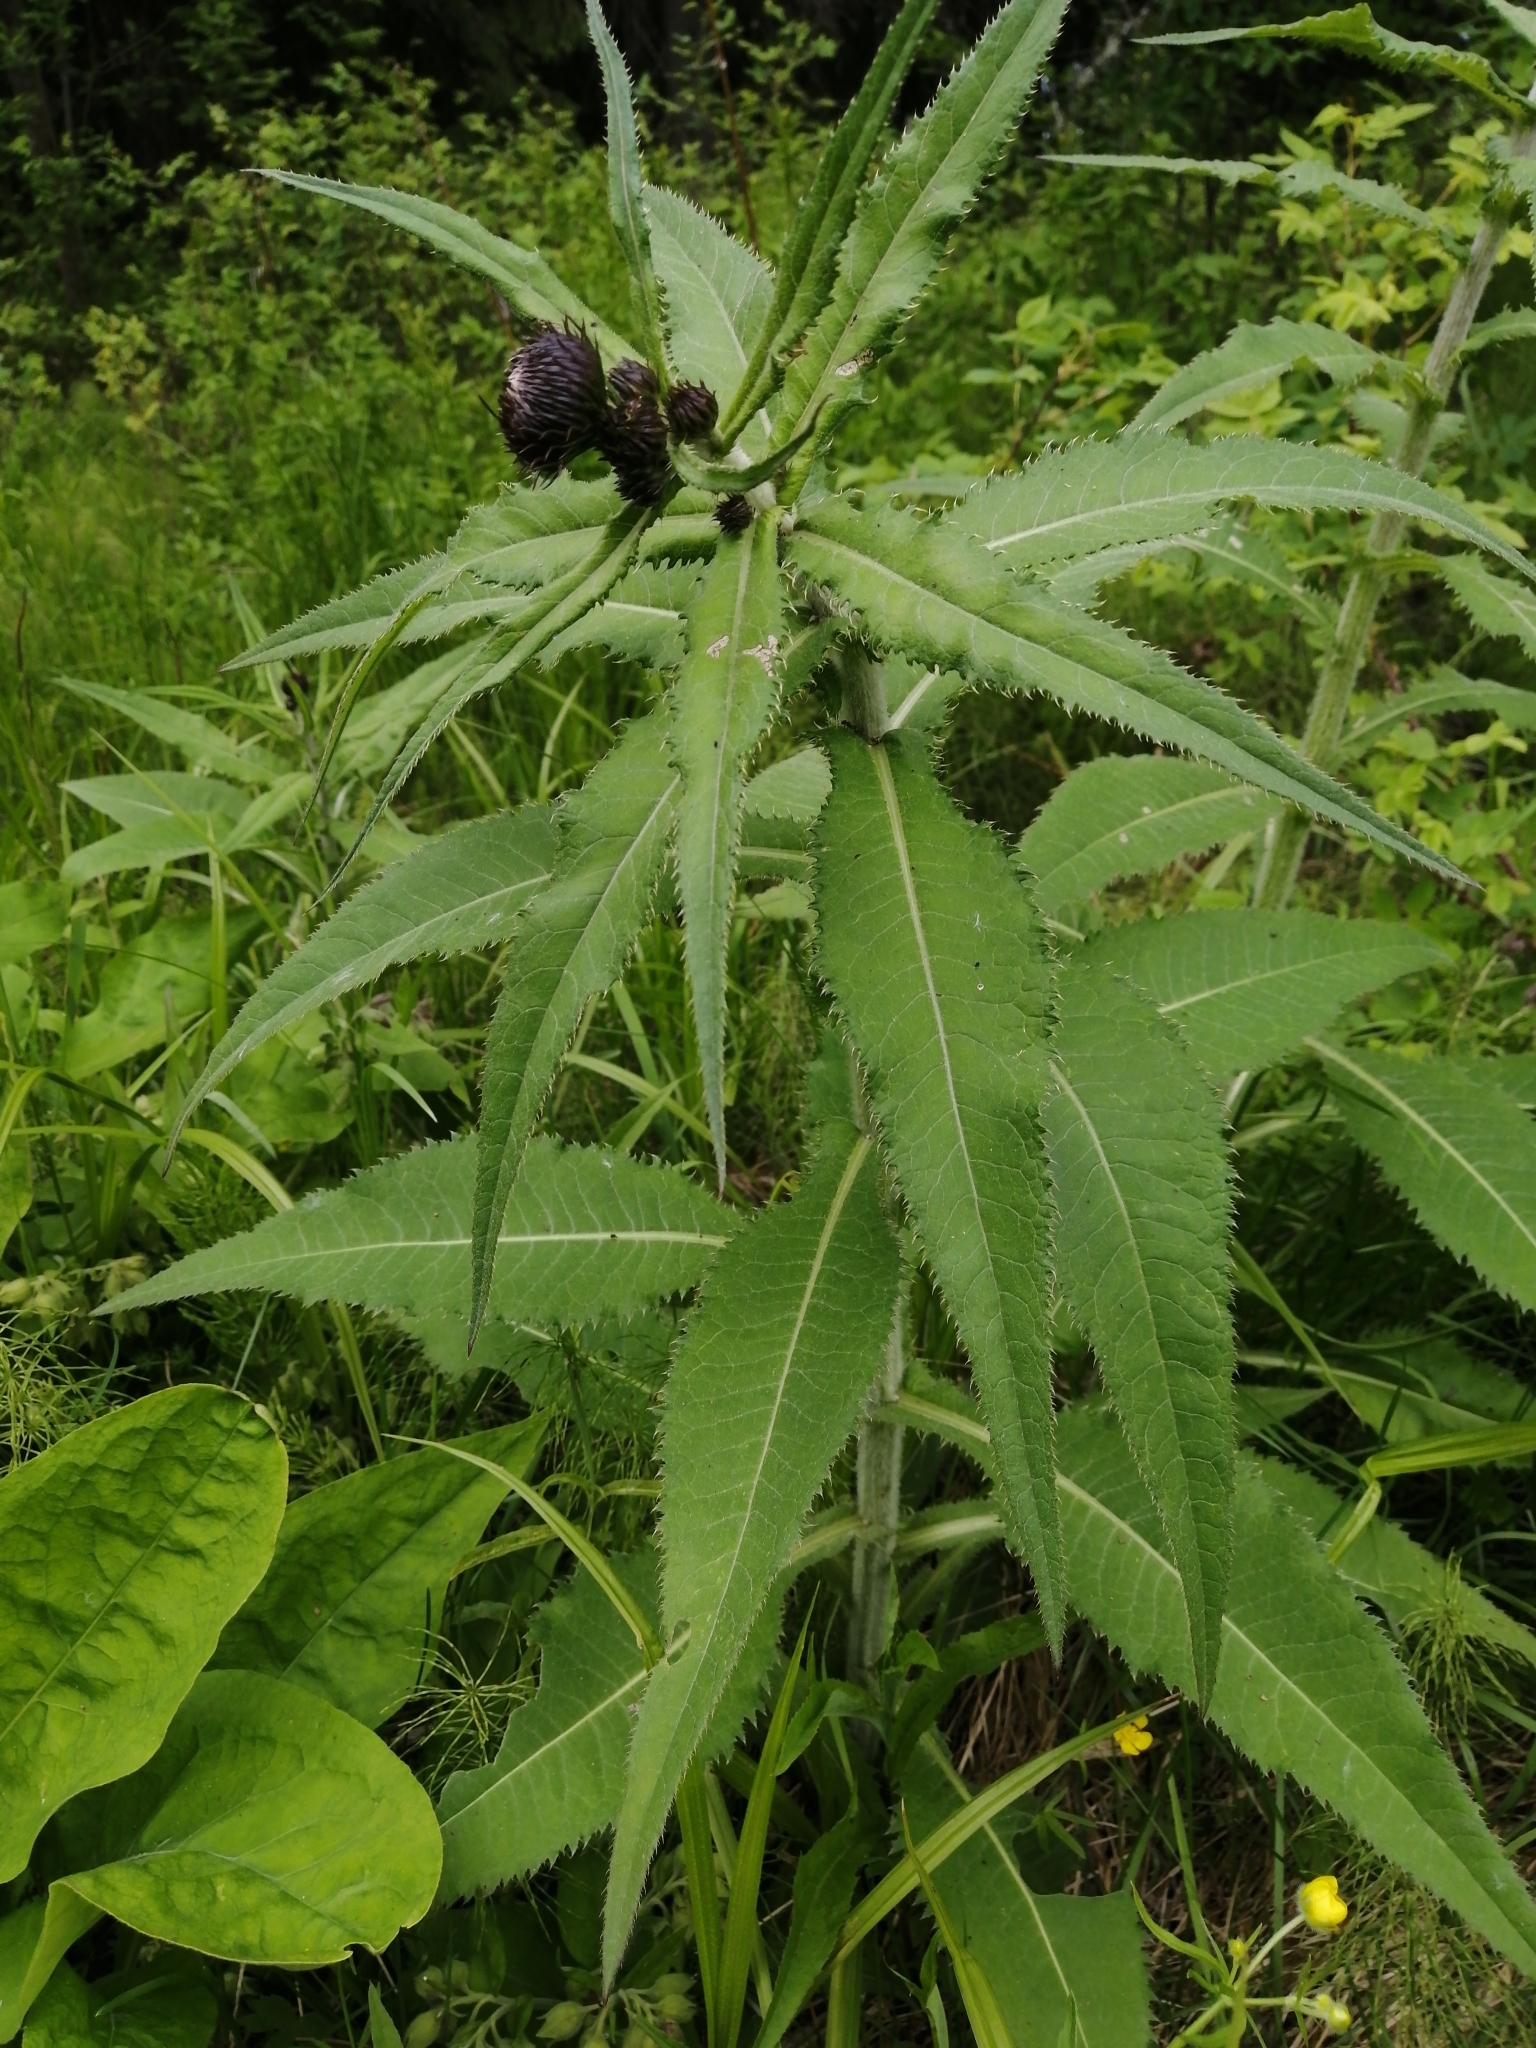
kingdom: Plantae
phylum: Tracheophyta
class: Magnoliopsida
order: Asterales
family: Asteraceae
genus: Cirsium
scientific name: Cirsium heterophyllum
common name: Melancholy thistle
